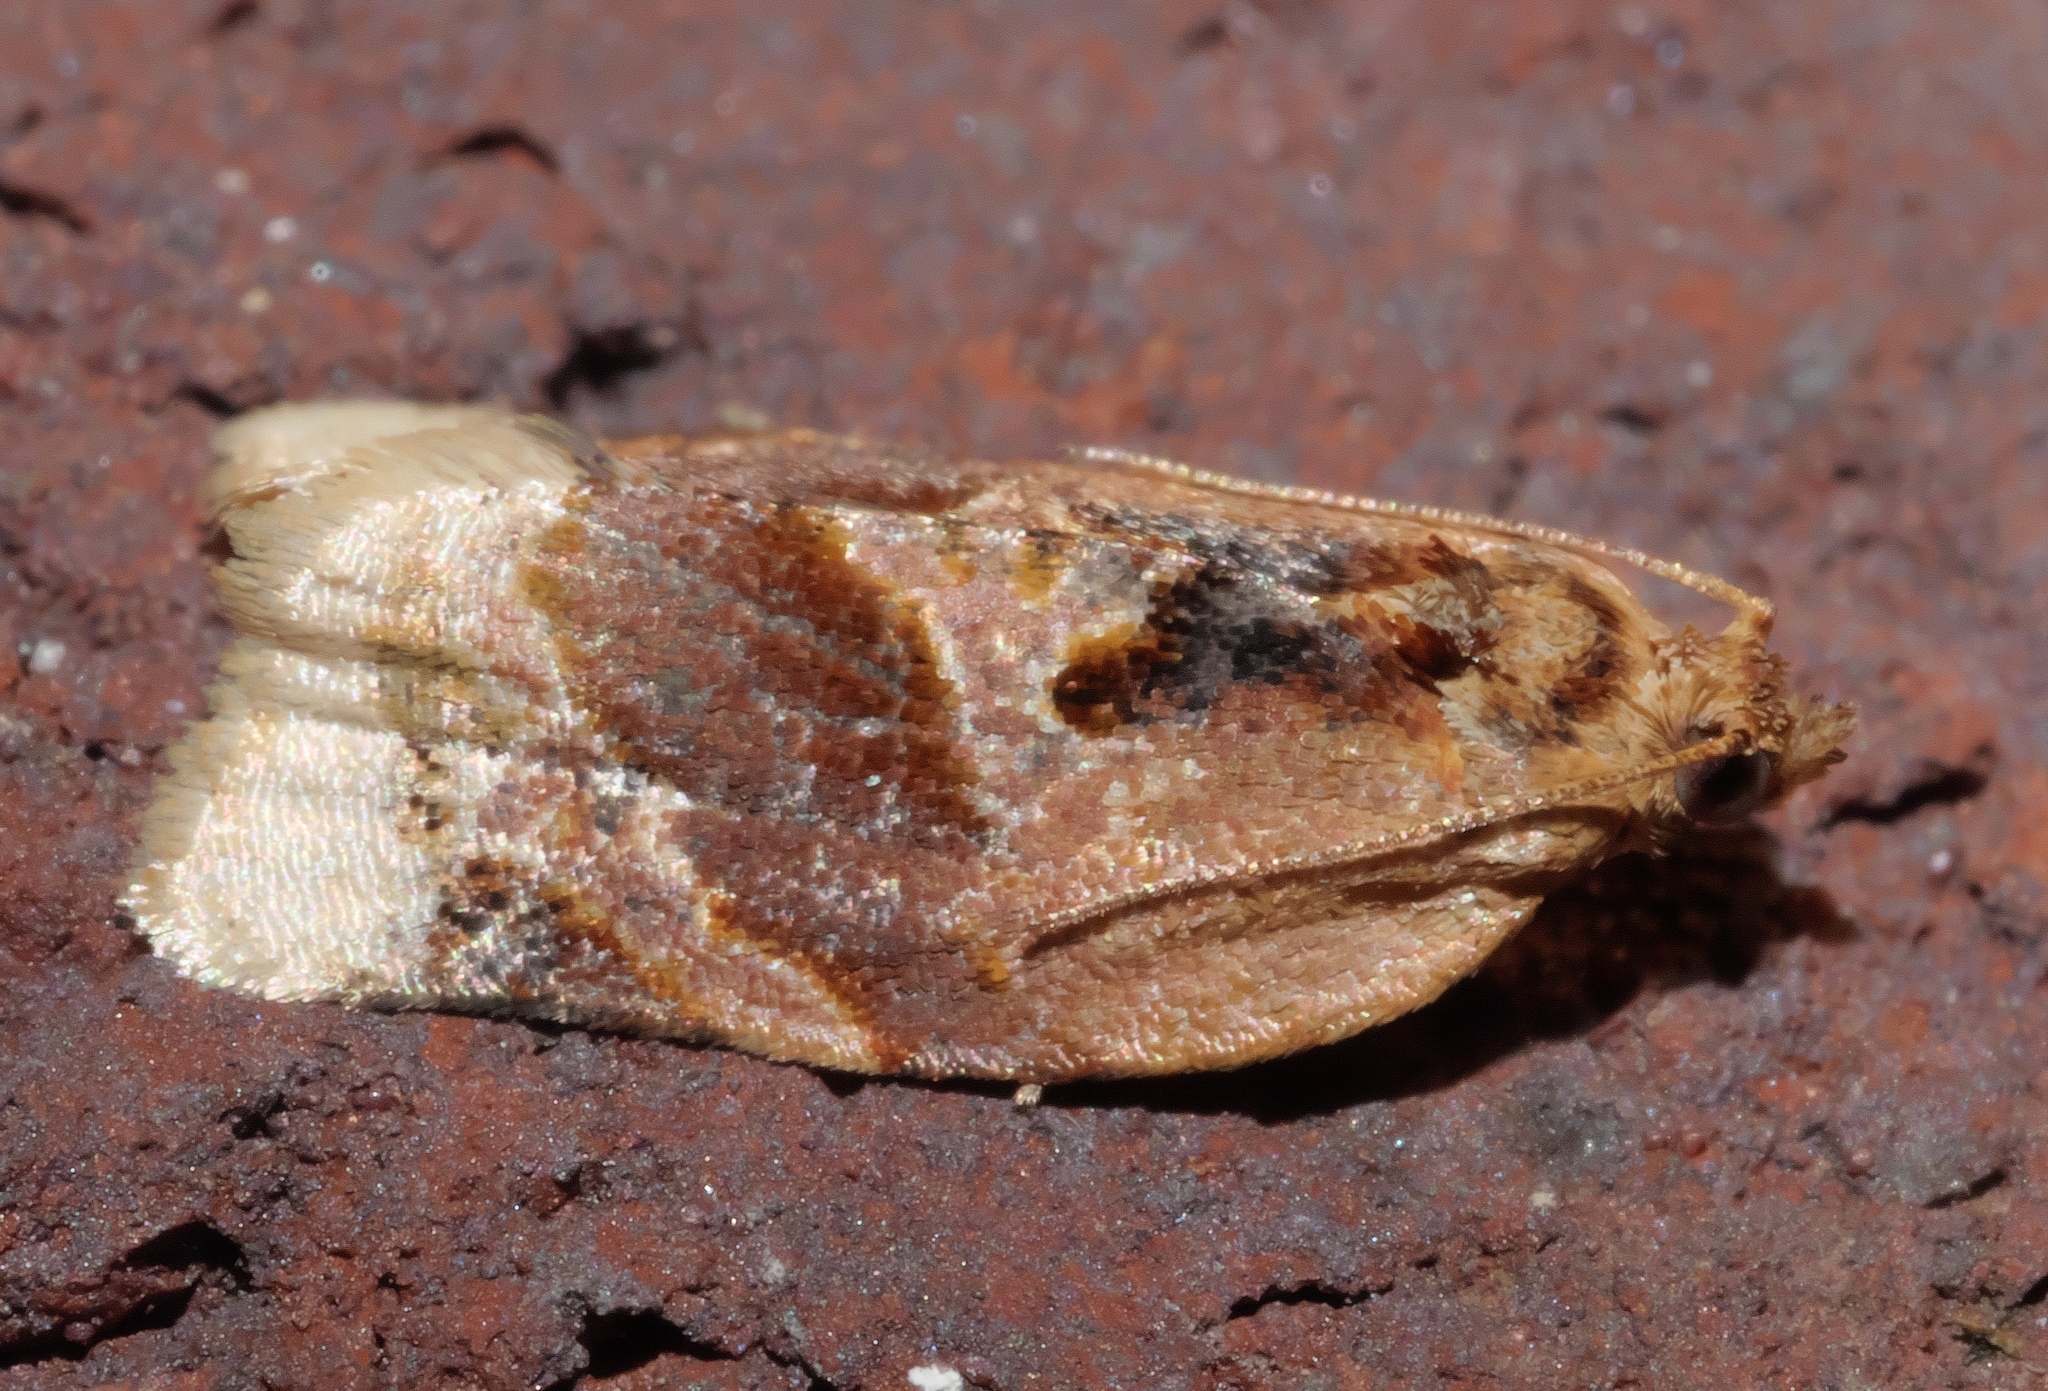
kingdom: Animalia
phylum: Arthropoda
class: Insecta
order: Lepidoptera
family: Tortricidae
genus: Argyrotaenia
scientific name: Argyrotaenia velutinana
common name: Red-banded leafroller moth
